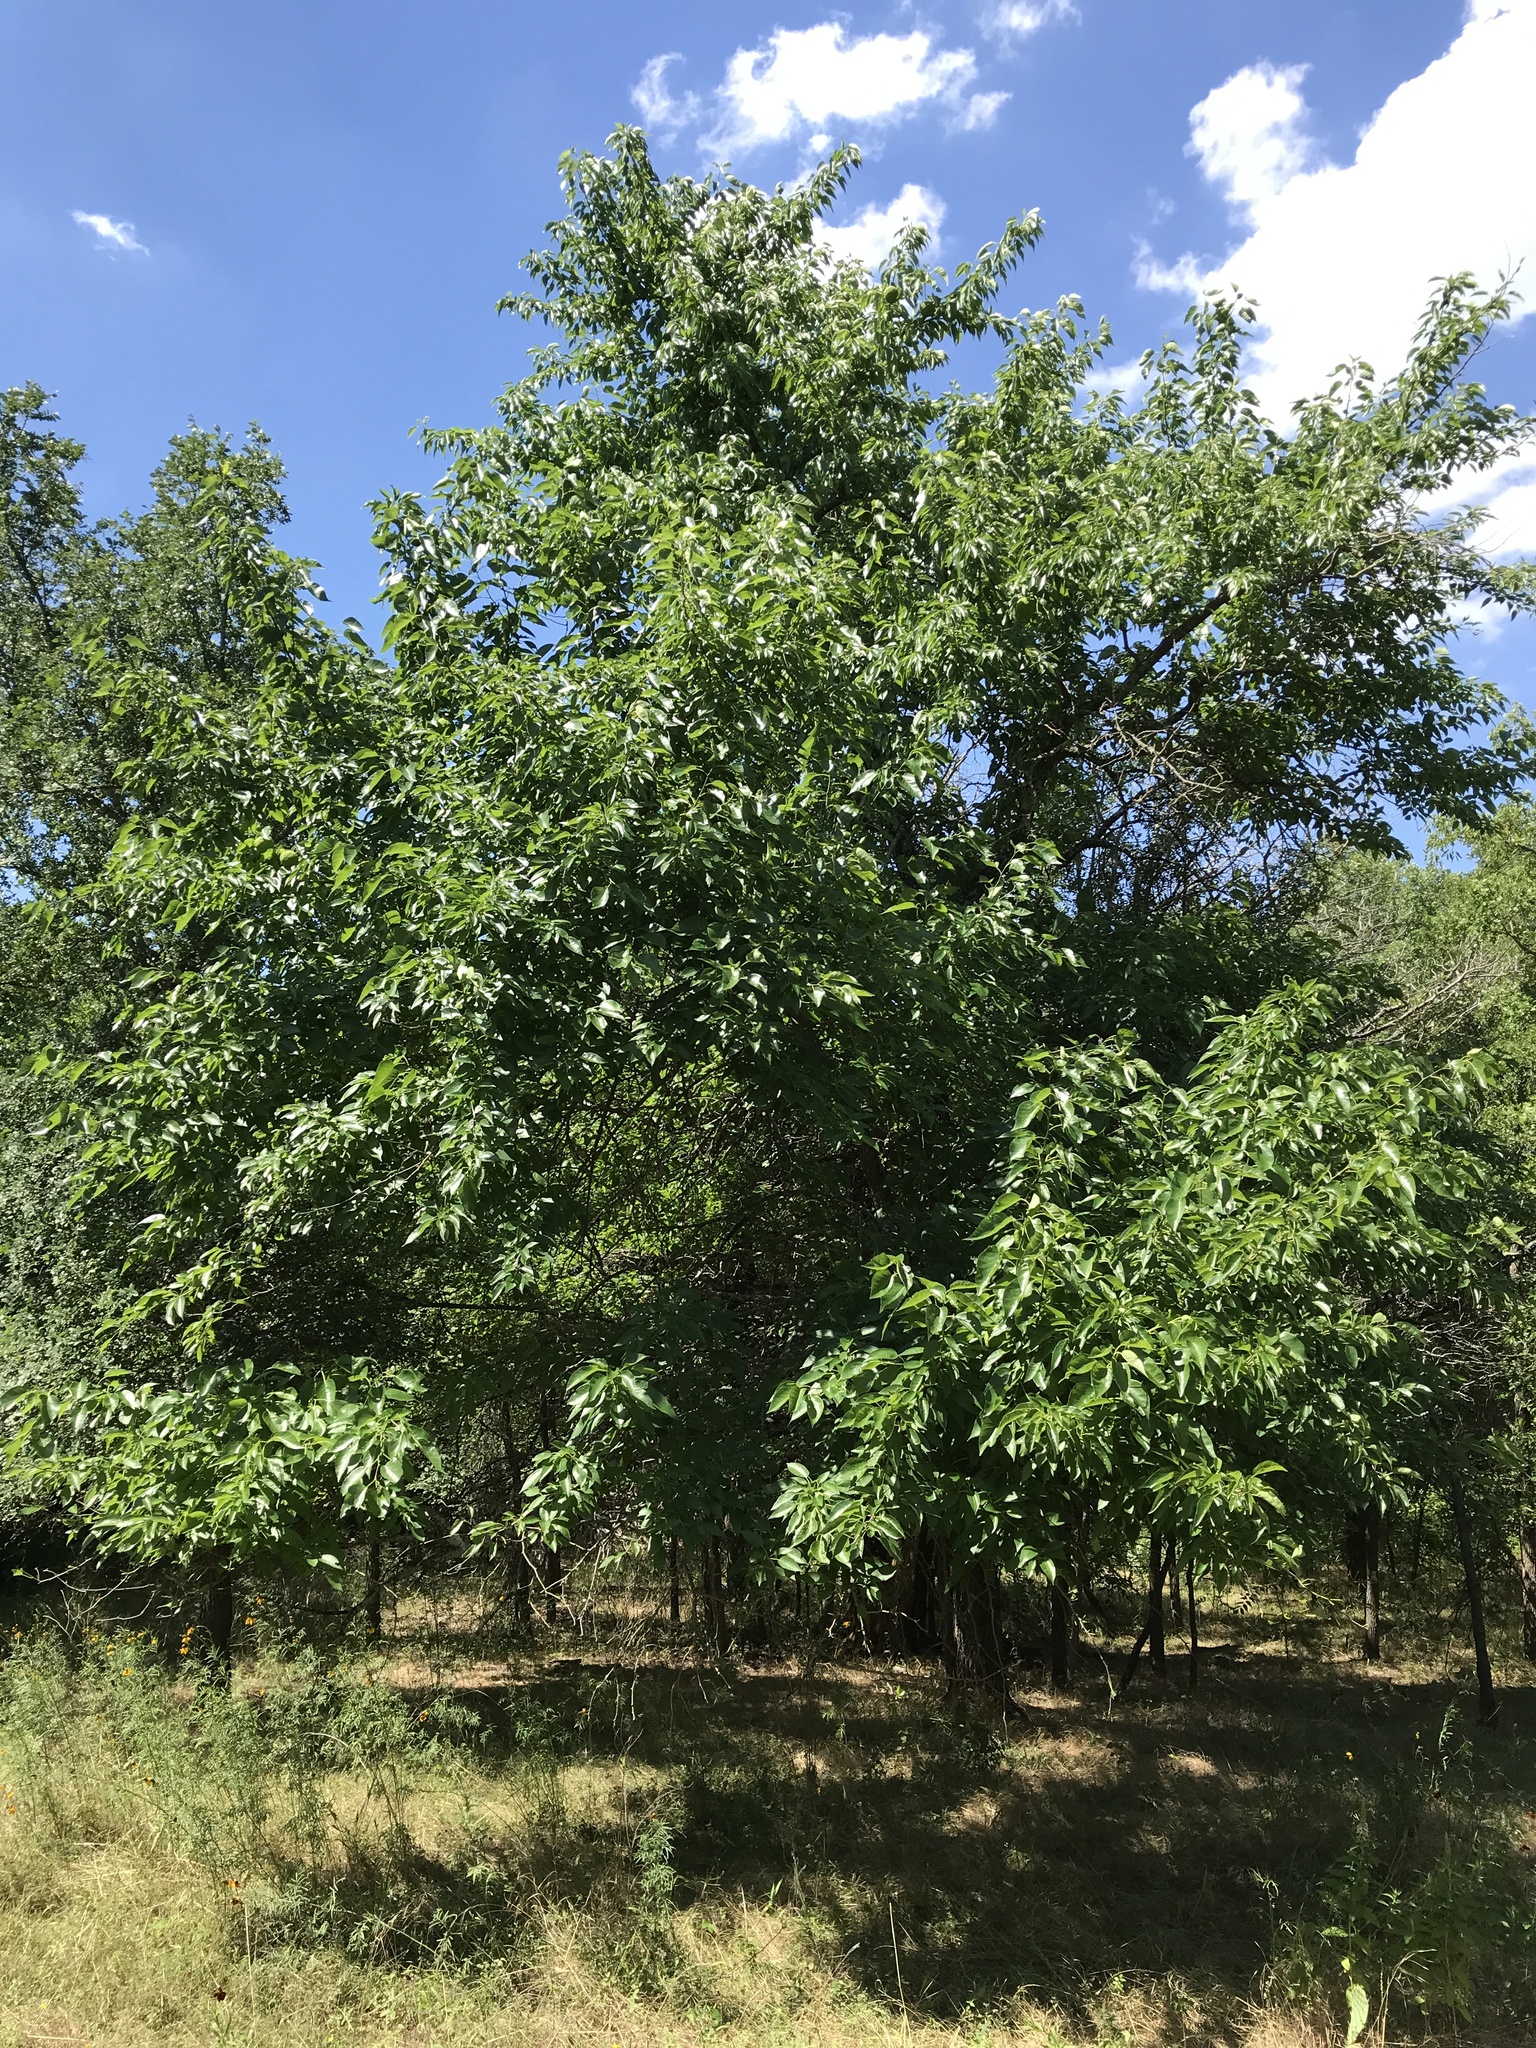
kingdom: Plantae
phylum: Tracheophyta
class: Magnoliopsida
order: Rosales
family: Moraceae
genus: Maclura
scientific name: Maclura pomifera
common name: Osage-orange
